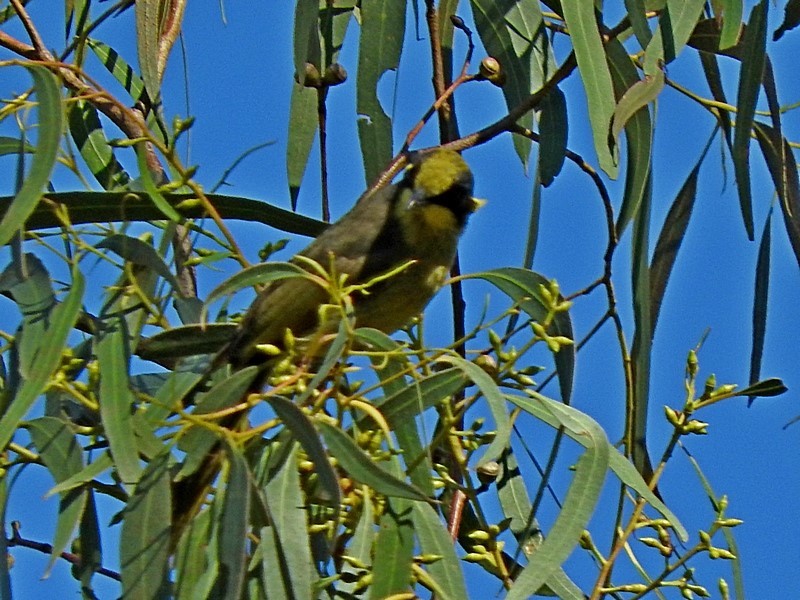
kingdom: Animalia
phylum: Chordata
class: Aves
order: Passeriformes
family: Meliphagidae
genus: Lichenostomus
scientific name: Lichenostomus melanops
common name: Yellow-tufted honeyeater
